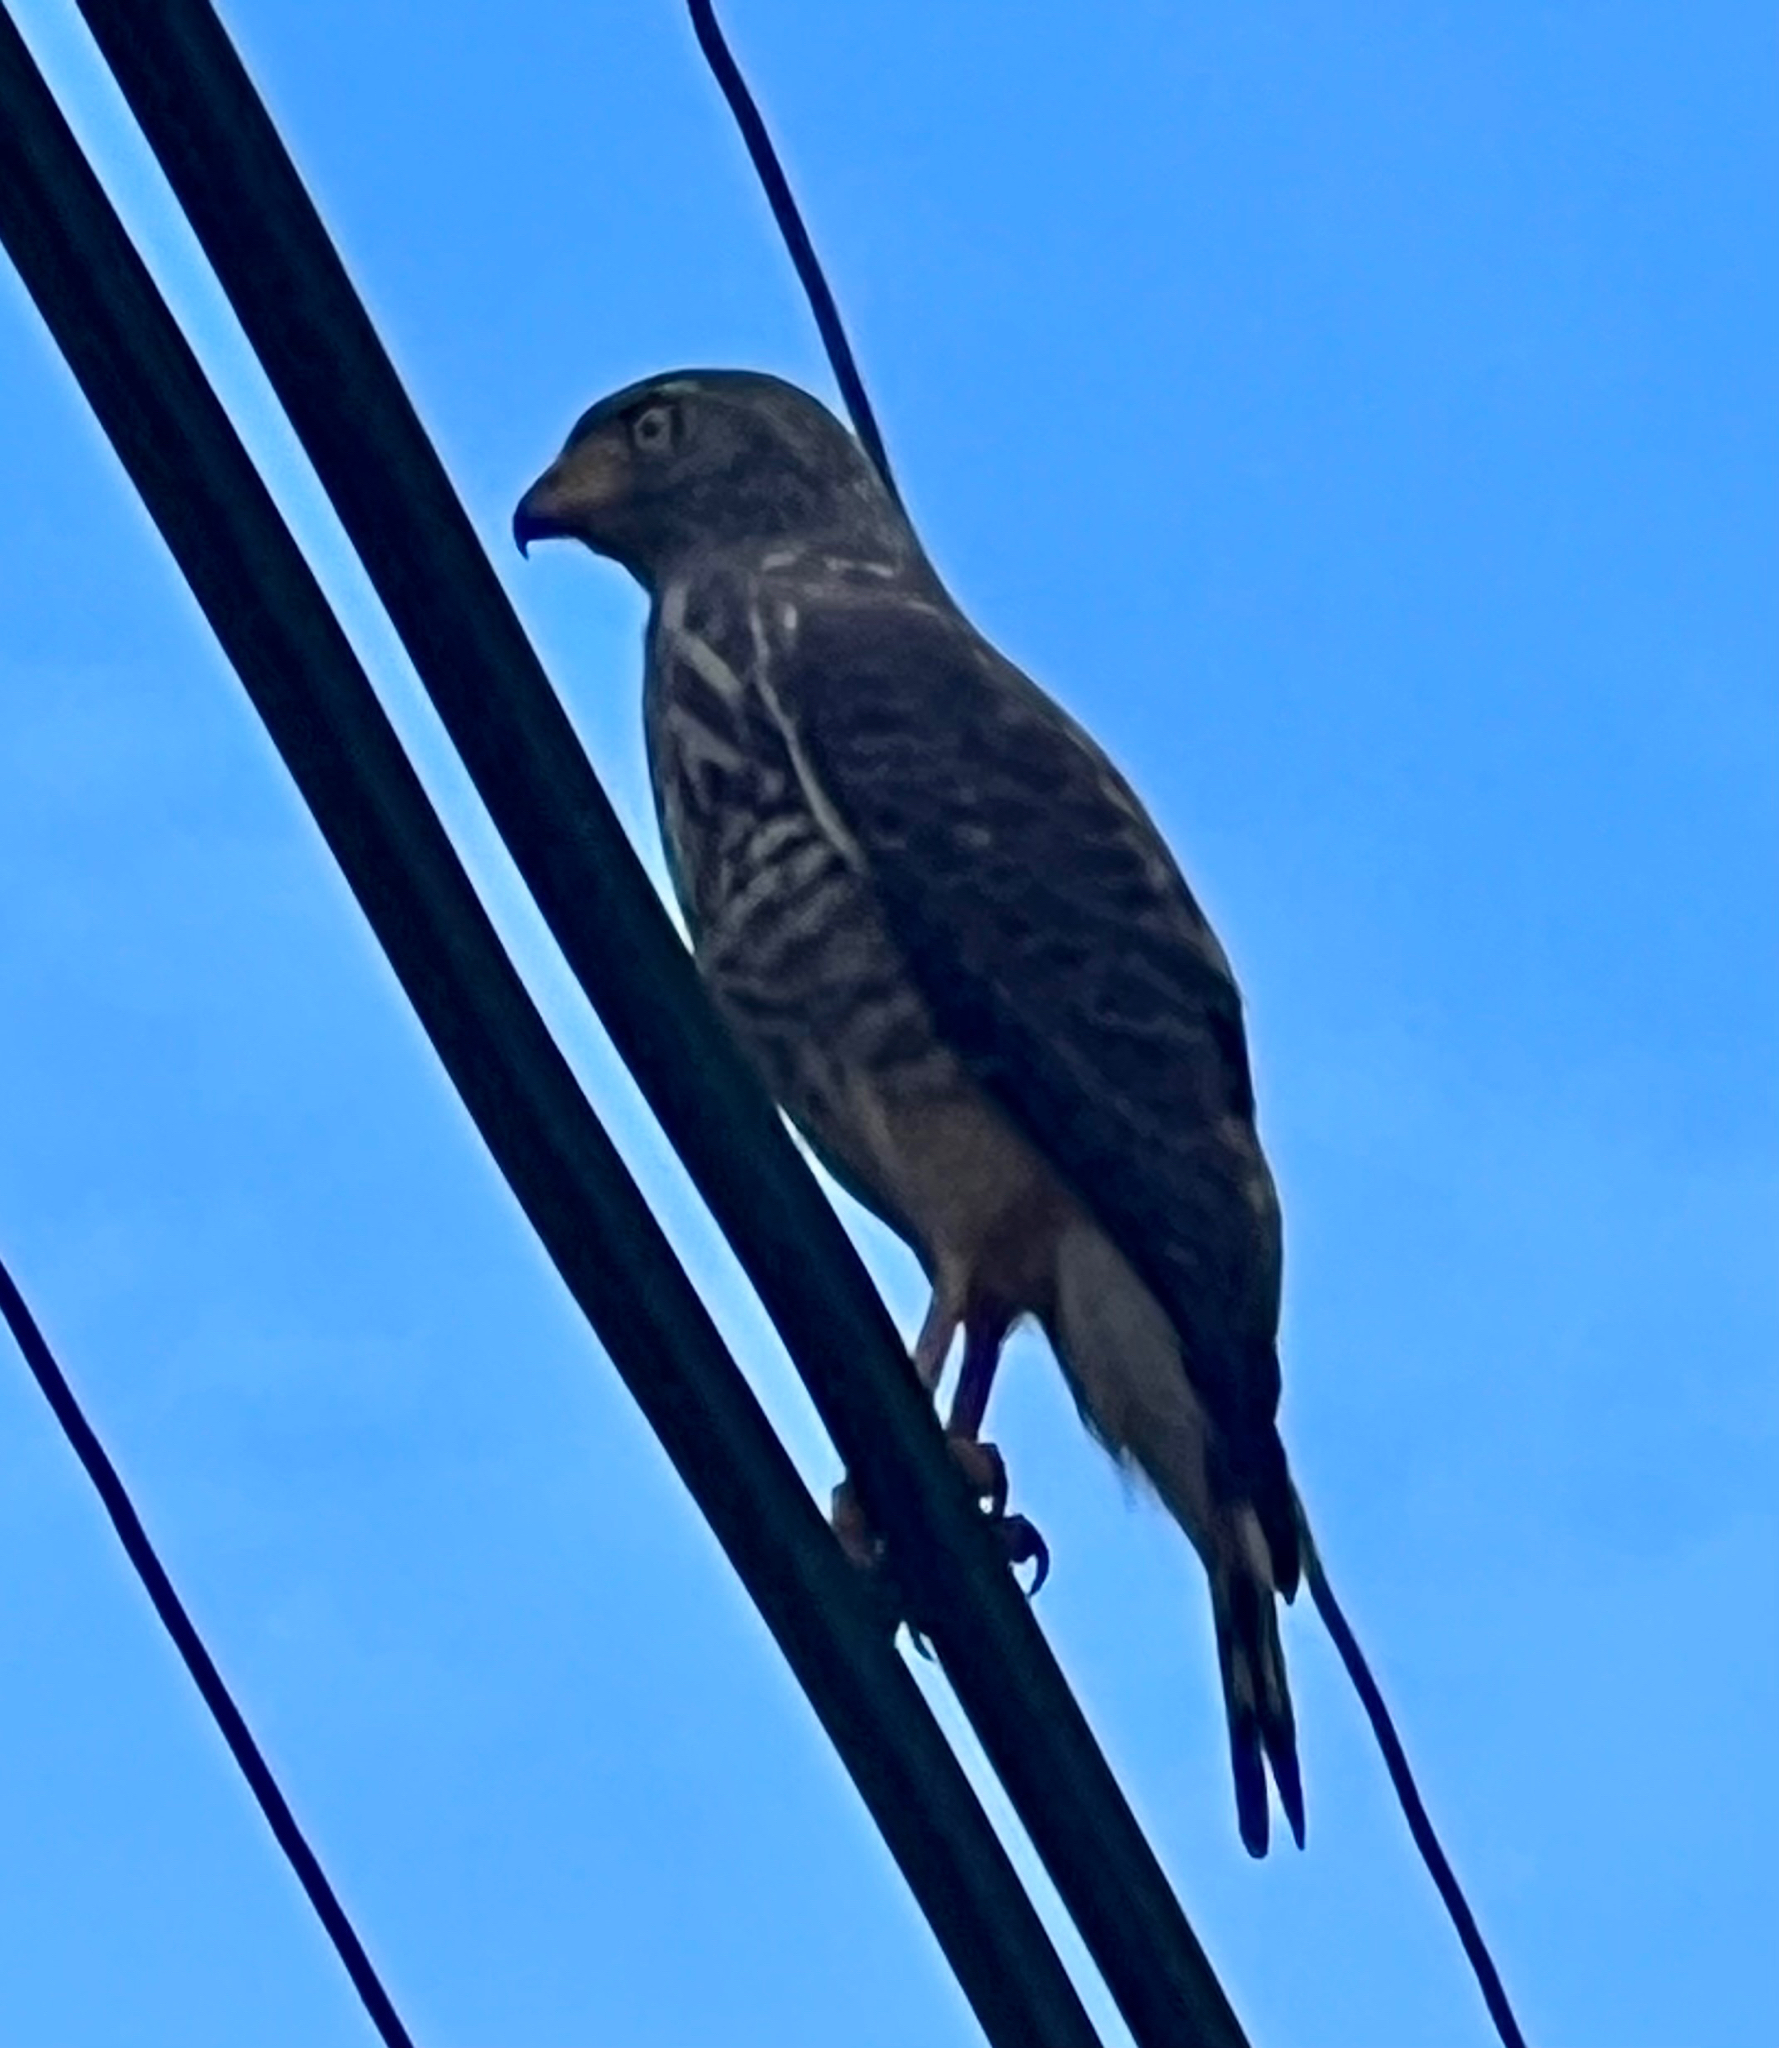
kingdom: Animalia
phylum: Chordata
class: Aves
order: Accipitriformes
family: Accipitridae
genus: Rupornis
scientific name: Rupornis magnirostris
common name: Roadside hawk
